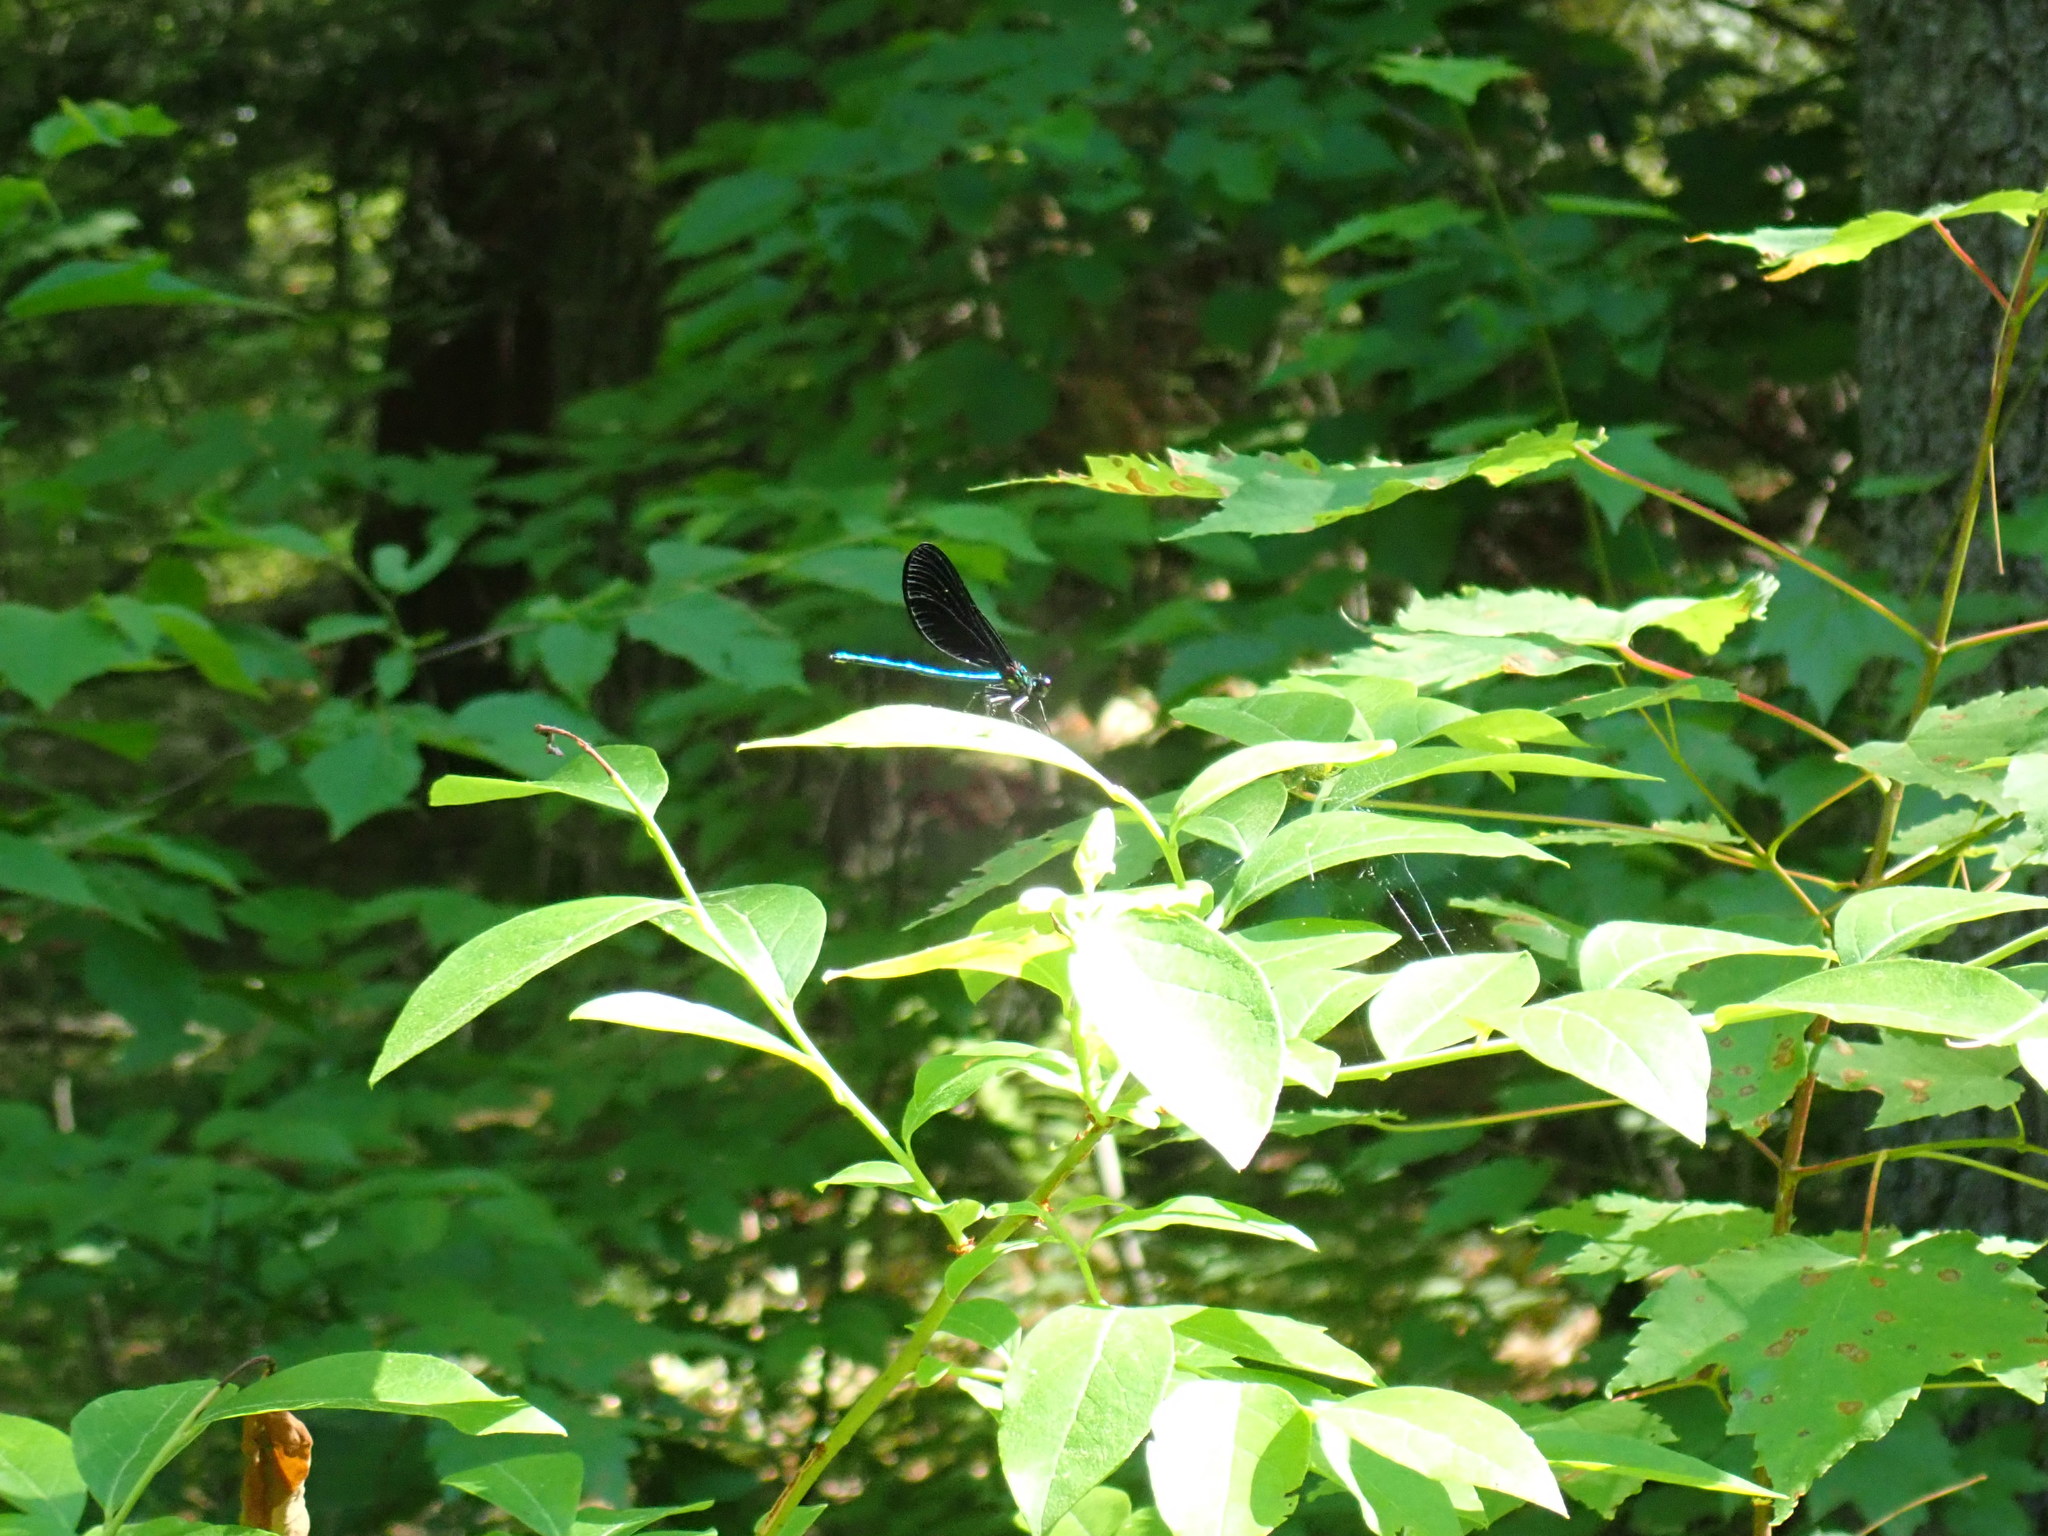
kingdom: Animalia
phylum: Arthropoda
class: Insecta
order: Odonata
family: Calopterygidae
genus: Calopteryx
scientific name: Calopteryx maculata
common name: Ebony jewelwing
